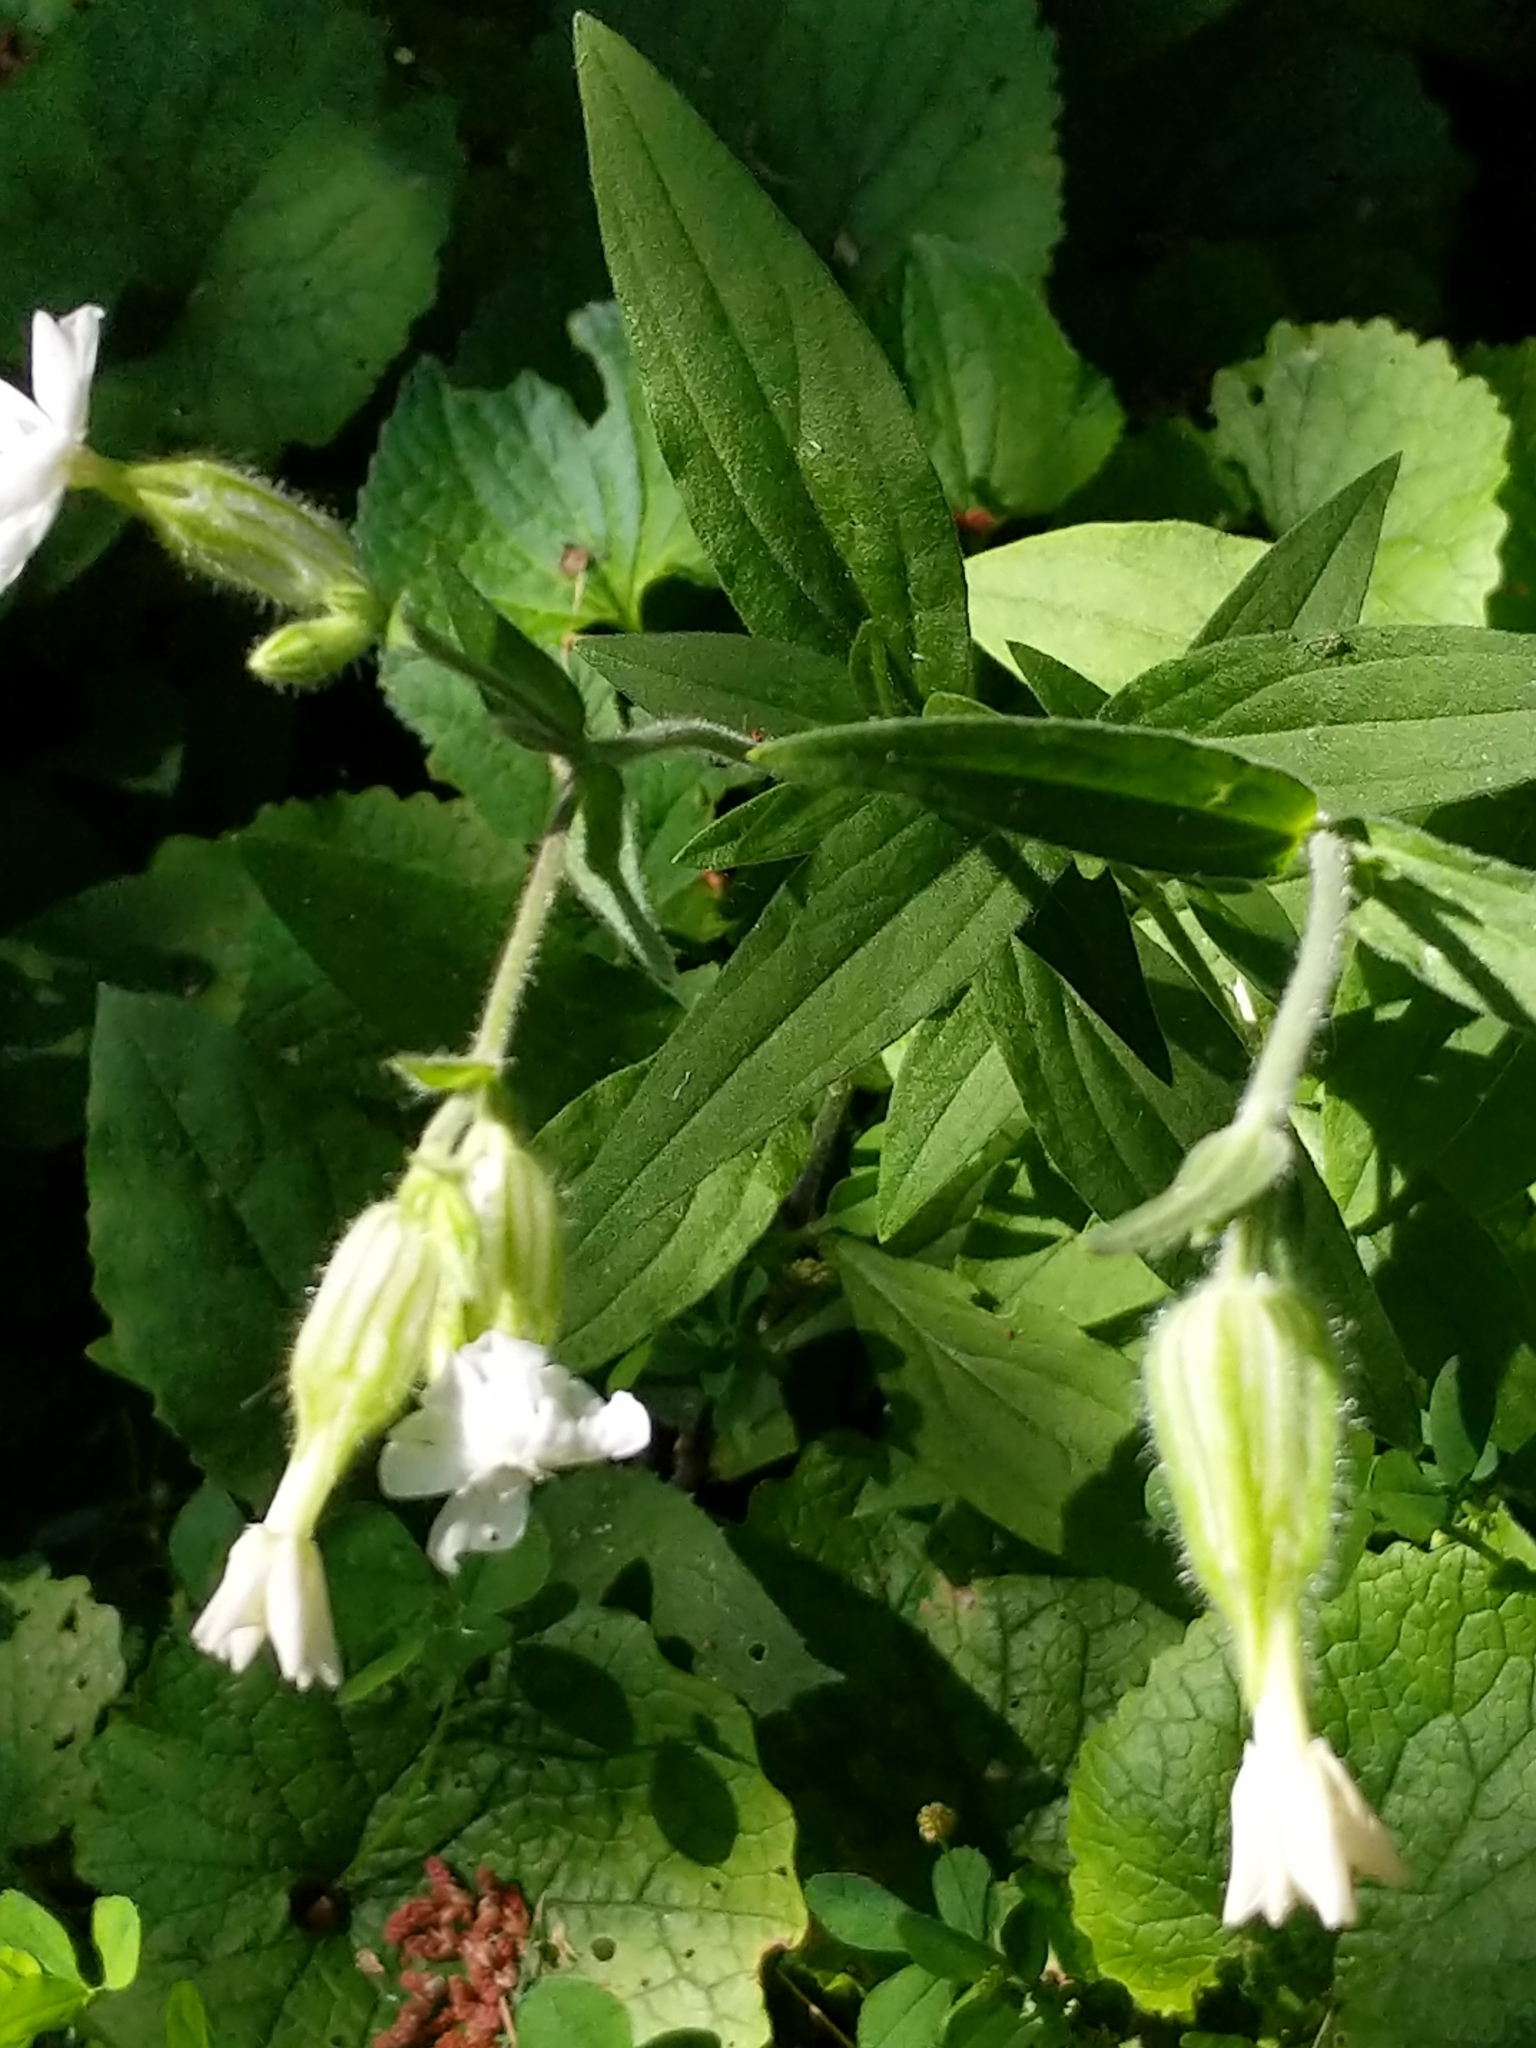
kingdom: Plantae
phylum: Tracheophyta
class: Magnoliopsida
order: Caryophyllales
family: Caryophyllaceae
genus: Silene
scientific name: Silene latifolia
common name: White campion
